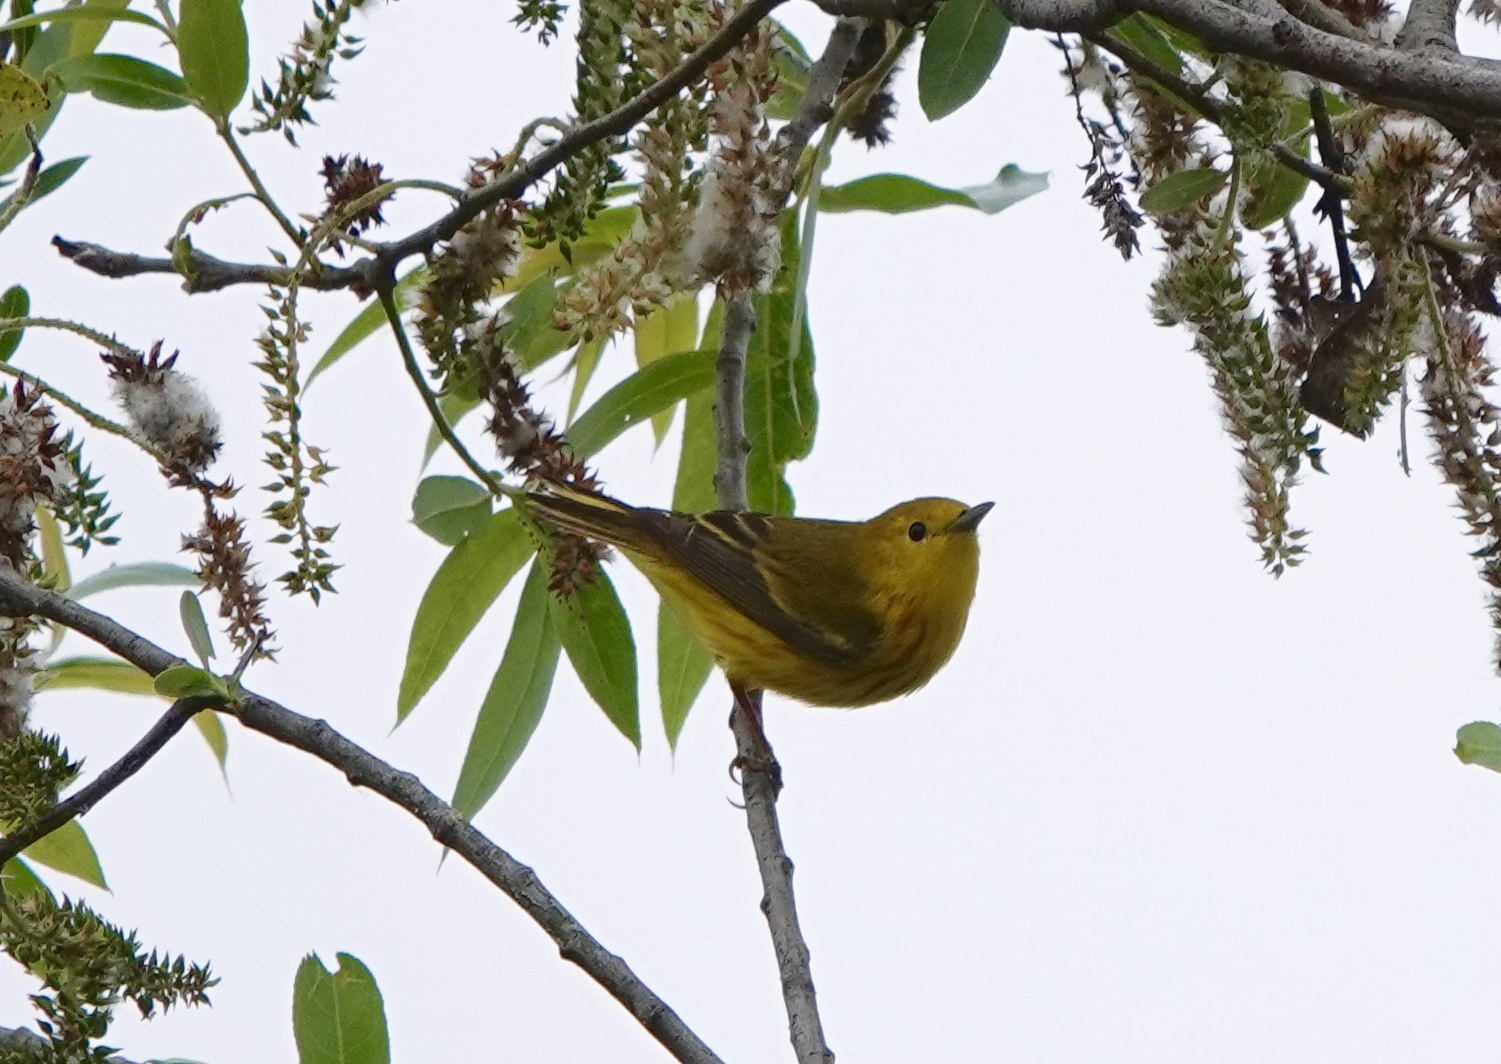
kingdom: Animalia
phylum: Chordata
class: Aves
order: Passeriformes
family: Parulidae
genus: Setophaga
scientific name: Setophaga petechia
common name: Yellow warbler
